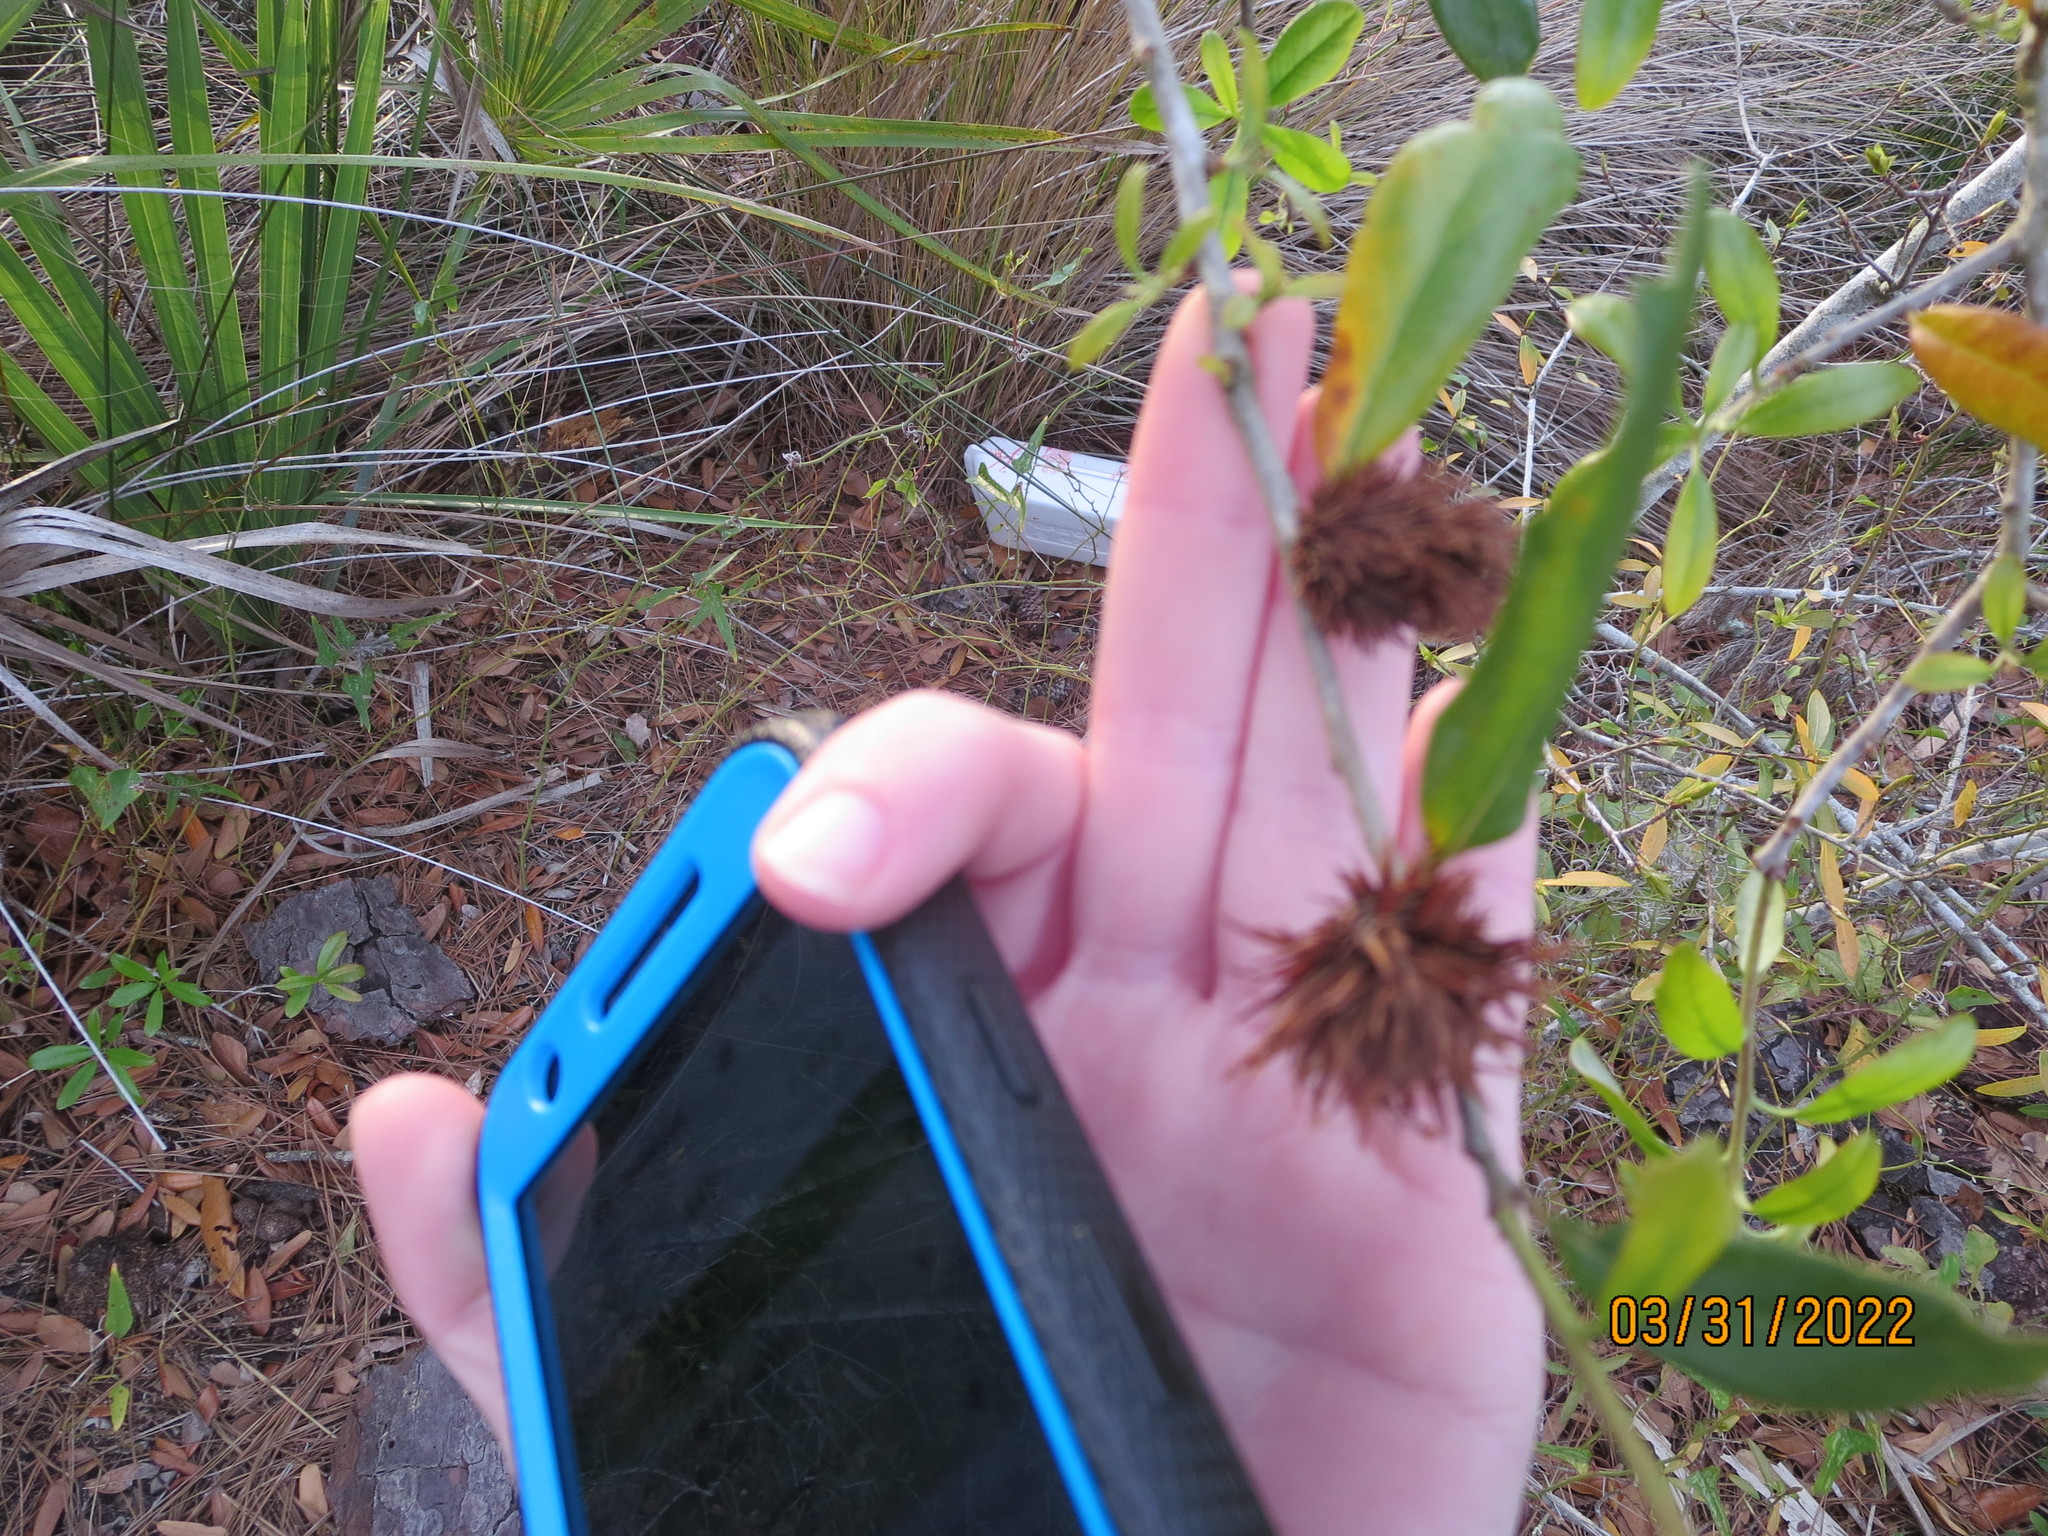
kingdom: Animalia
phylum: Arthropoda
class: Insecta
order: Hymenoptera
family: Cynipidae
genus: Andricus
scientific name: Andricus quercusfoliatus
